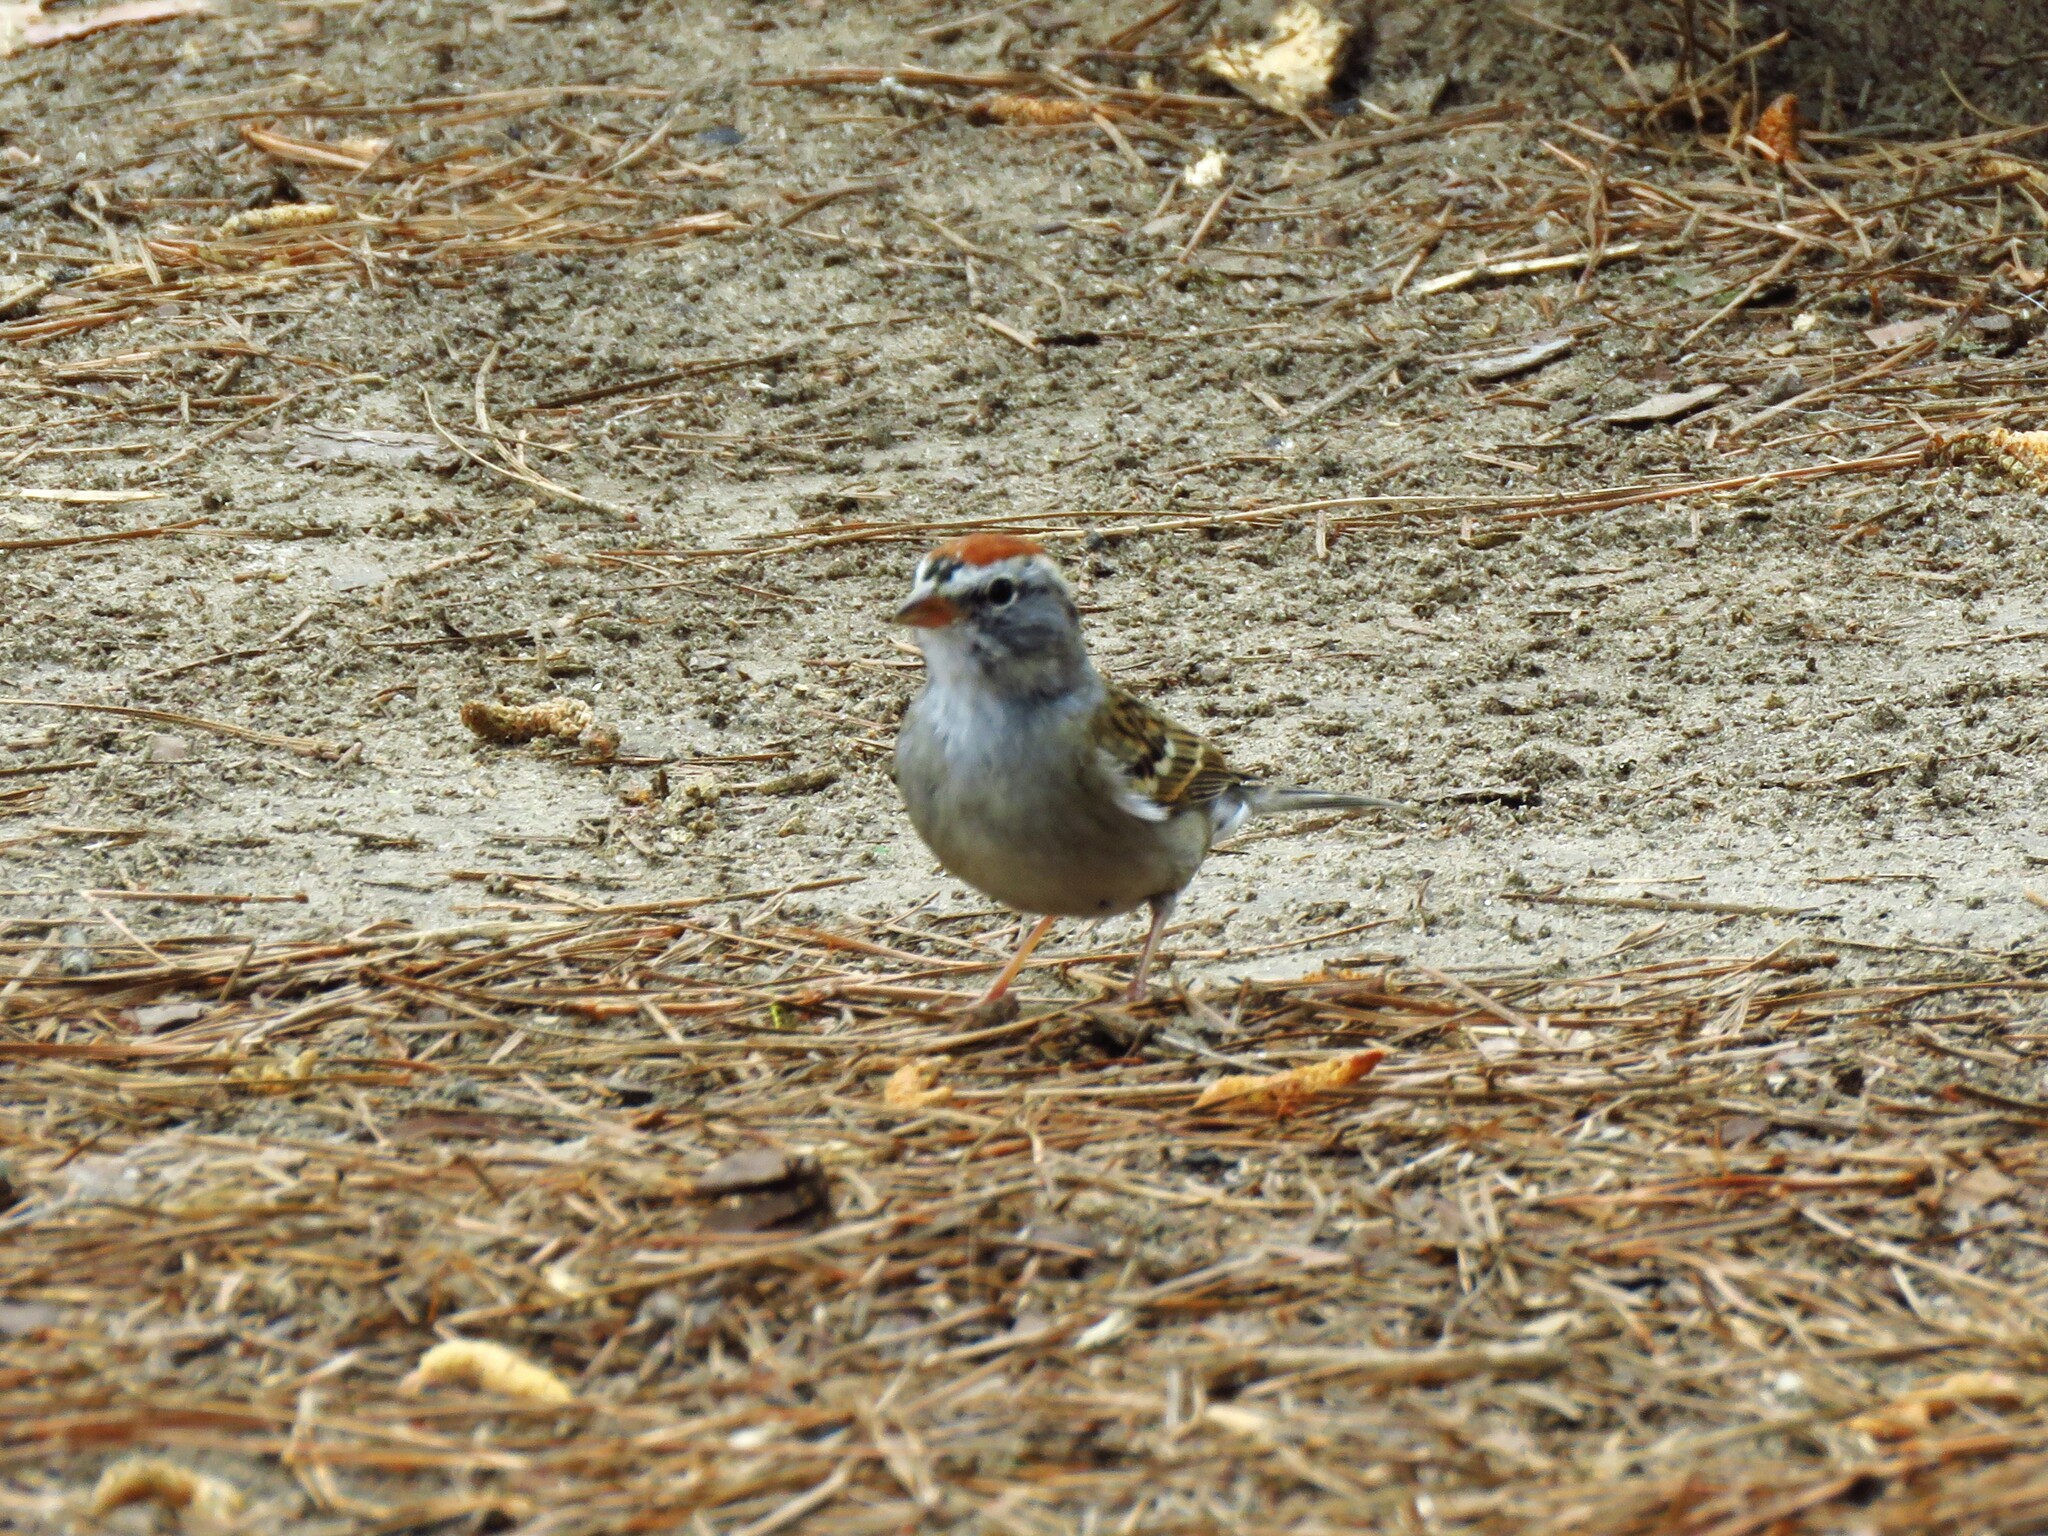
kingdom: Animalia
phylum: Chordata
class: Aves
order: Passeriformes
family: Passerellidae
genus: Spizella
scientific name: Spizella passerina
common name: Chipping sparrow
